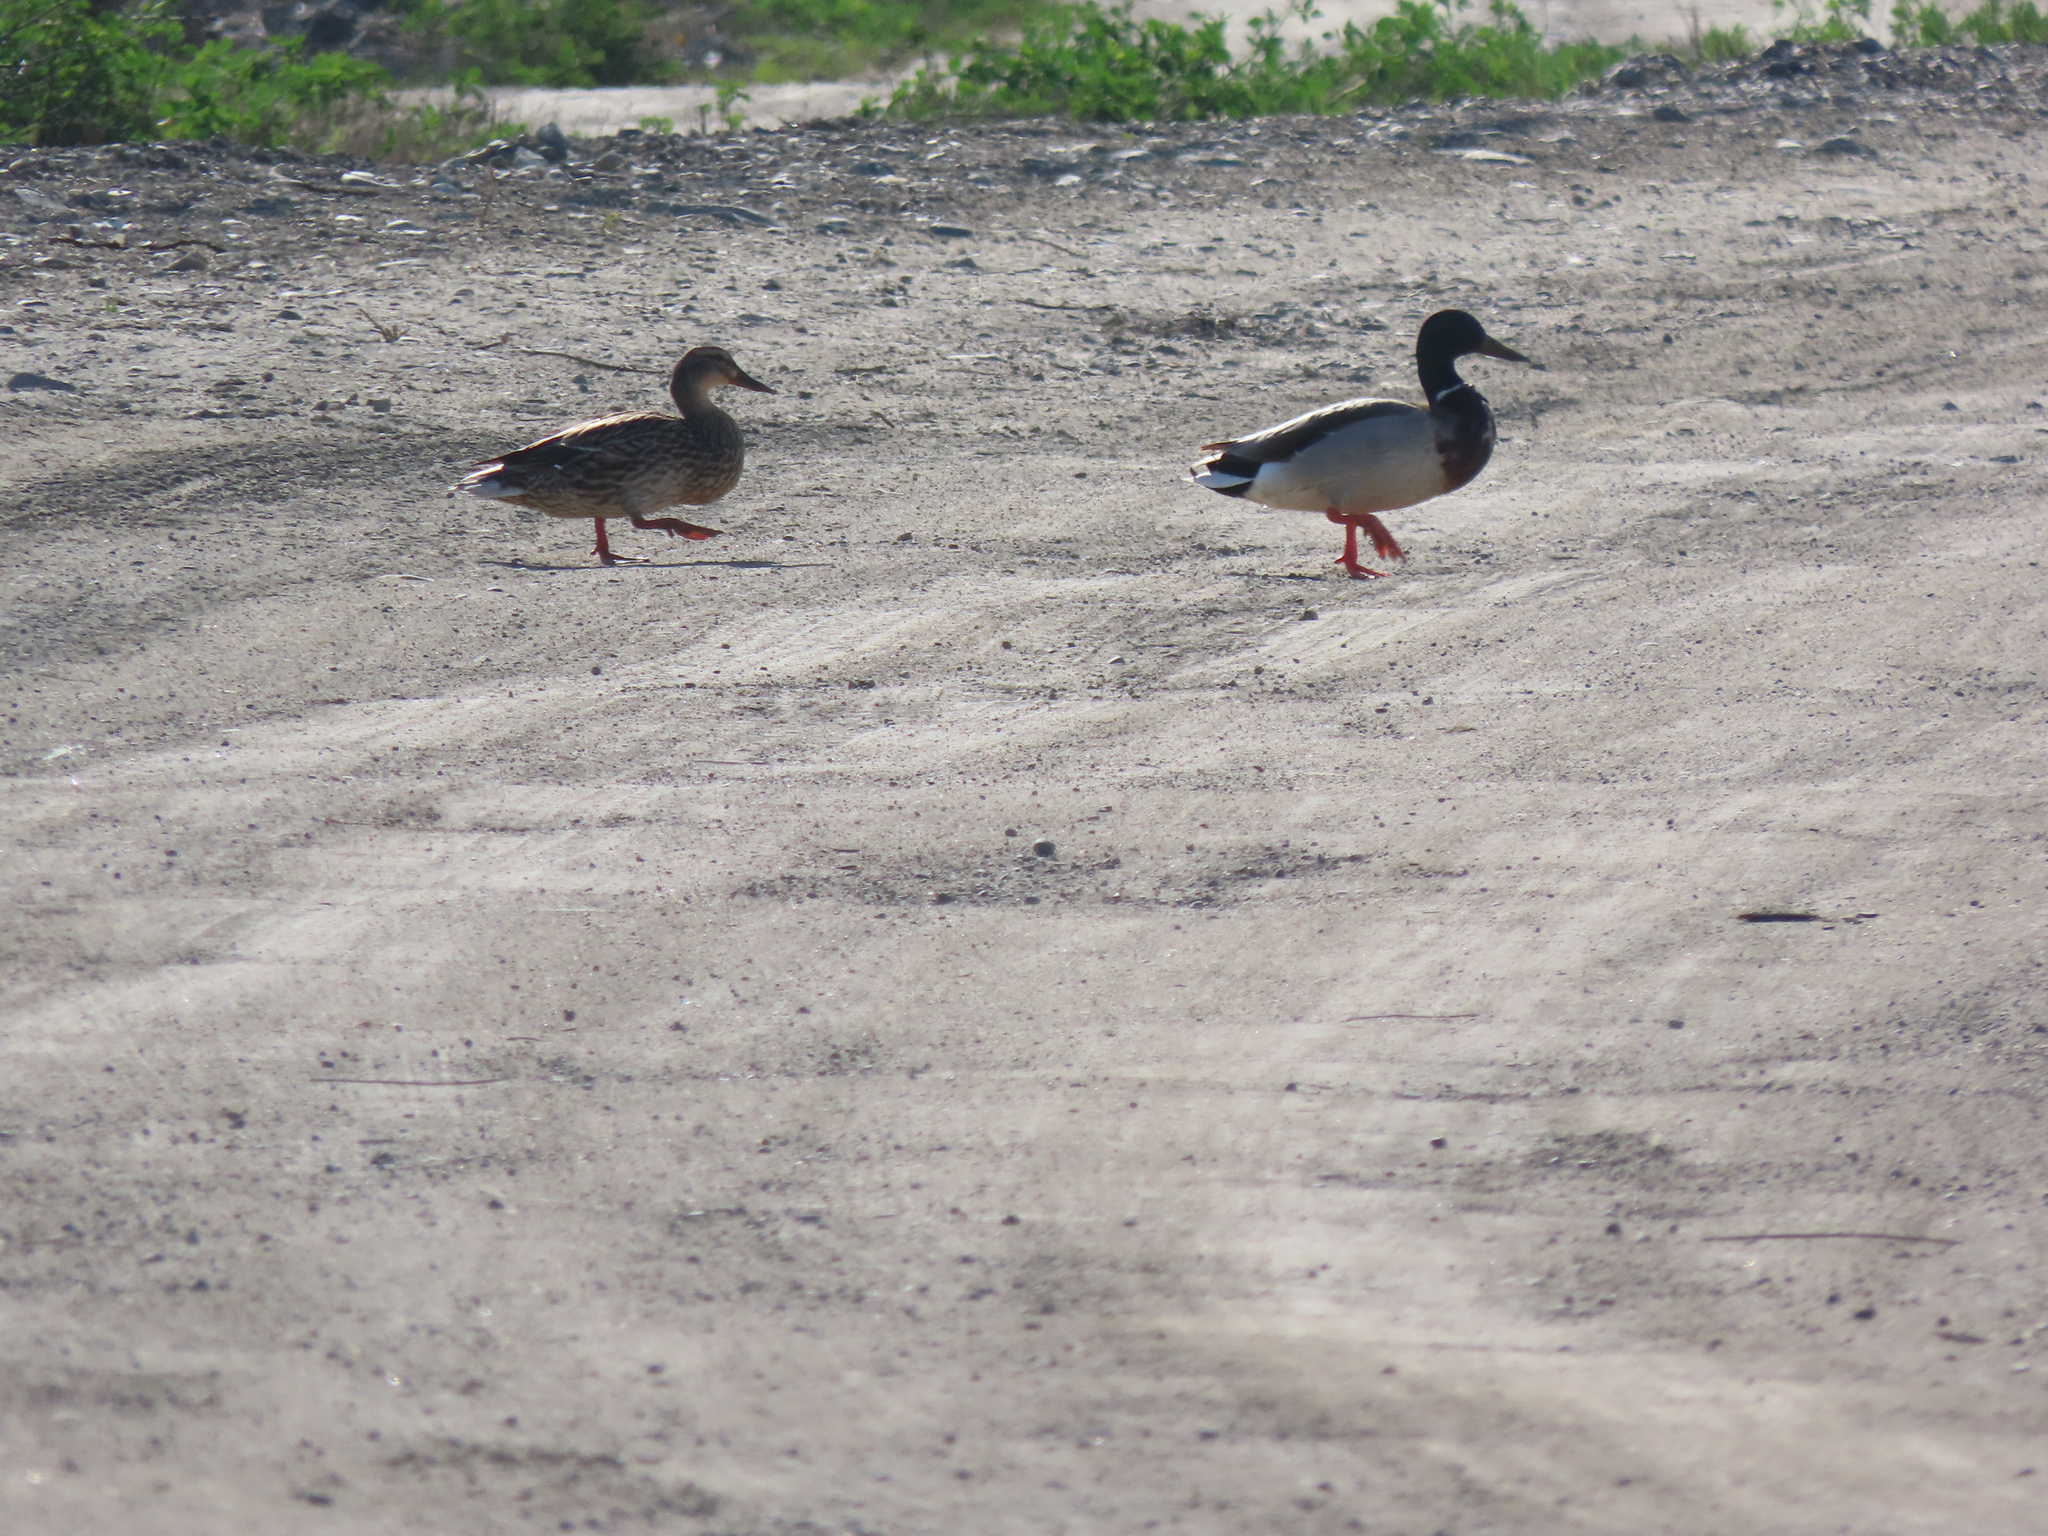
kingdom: Animalia
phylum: Chordata
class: Aves
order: Anseriformes
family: Anatidae
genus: Anas
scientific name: Anas platyrhynchos
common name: Mallard
